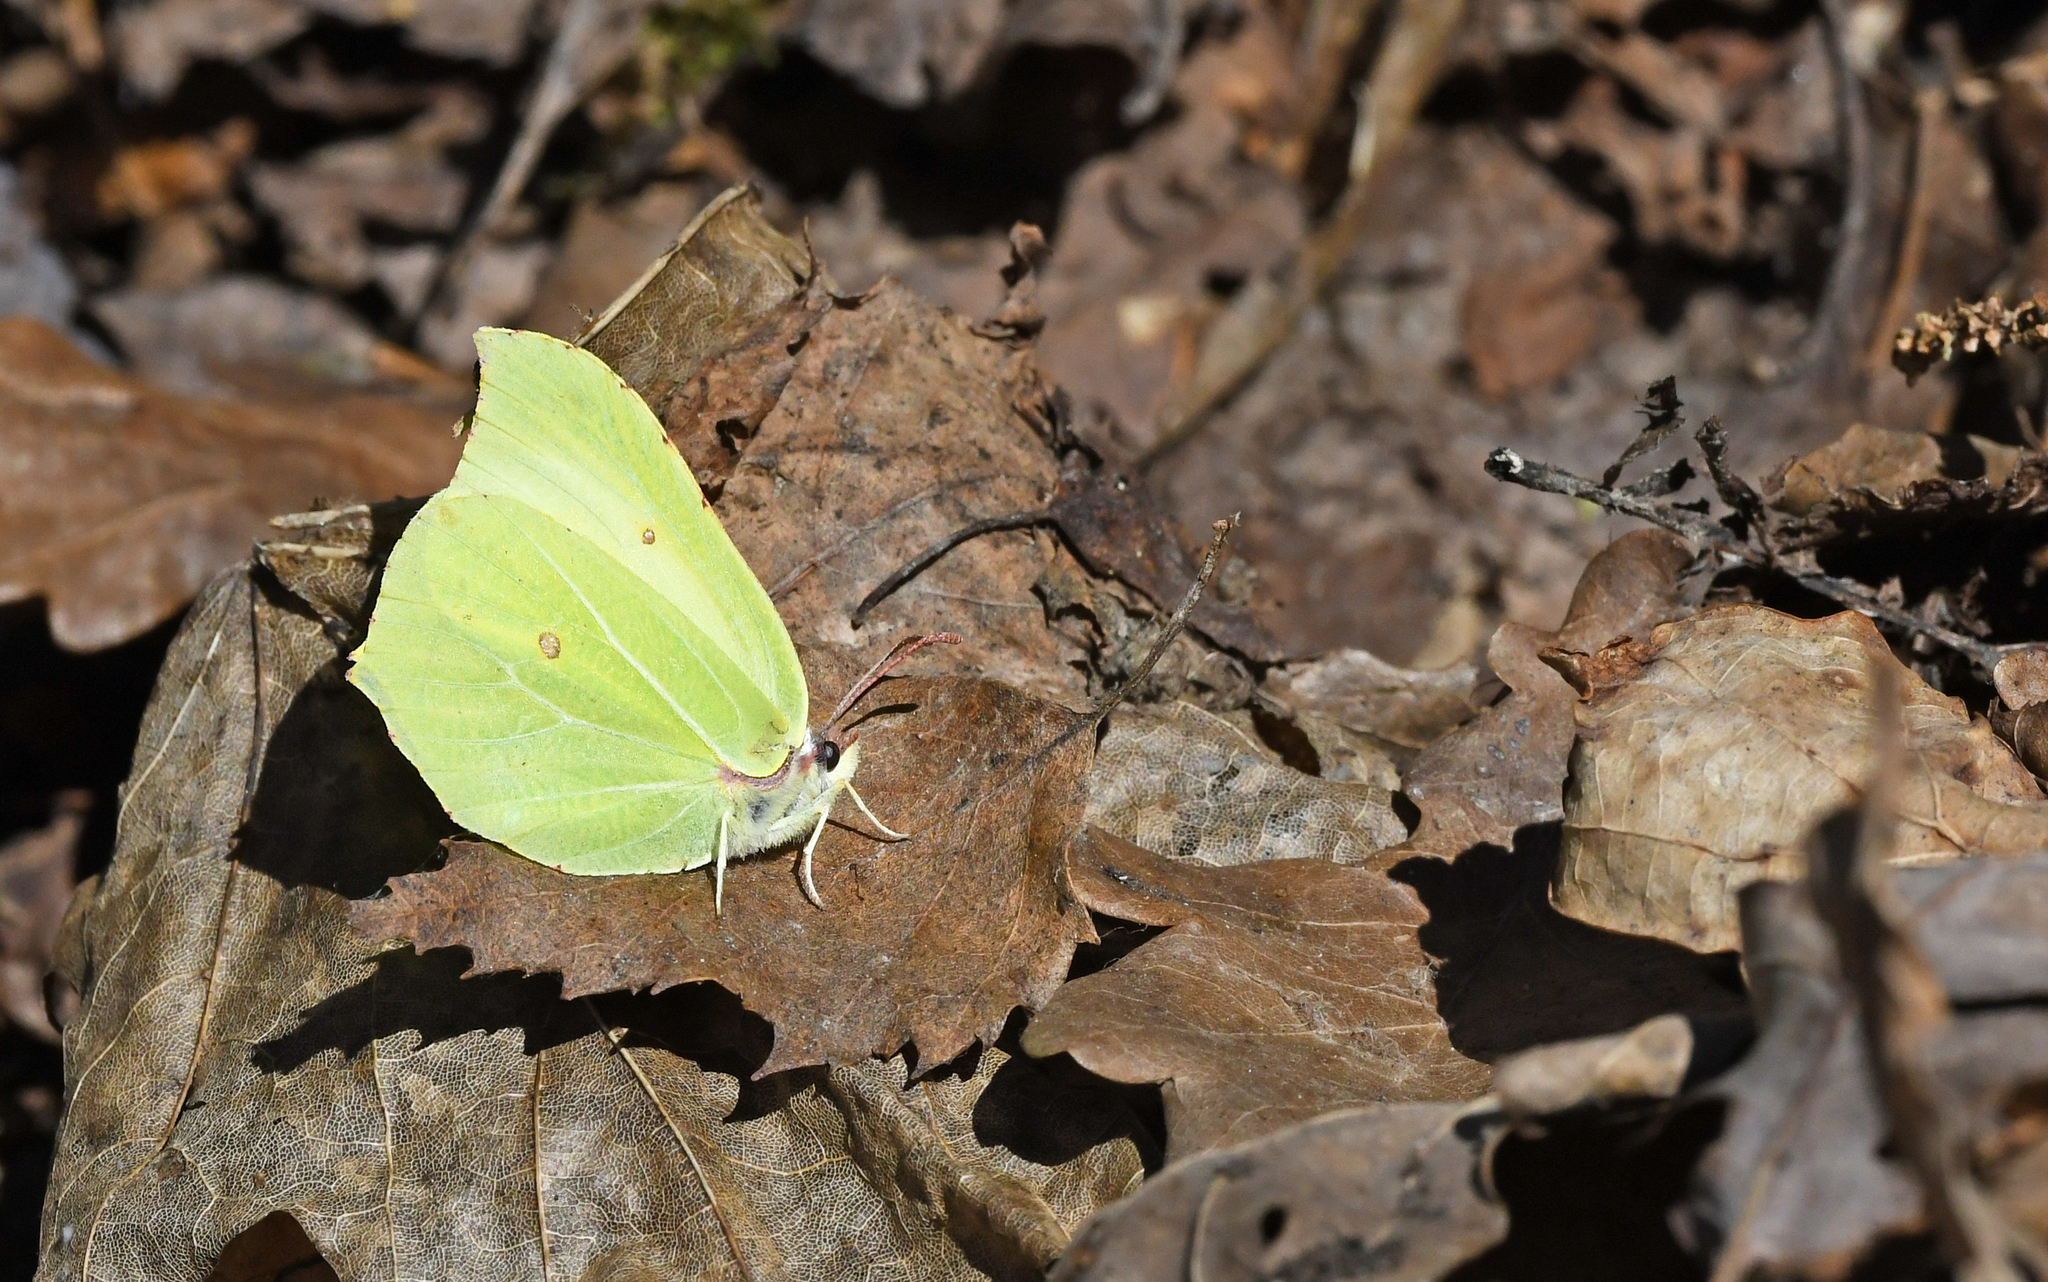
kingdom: Animalia
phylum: Arthropoda
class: Insecta
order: Lepidoptera
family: Pieridae
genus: Gonepteryx
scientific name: Gonepteryx rhamni
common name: Brimstone
